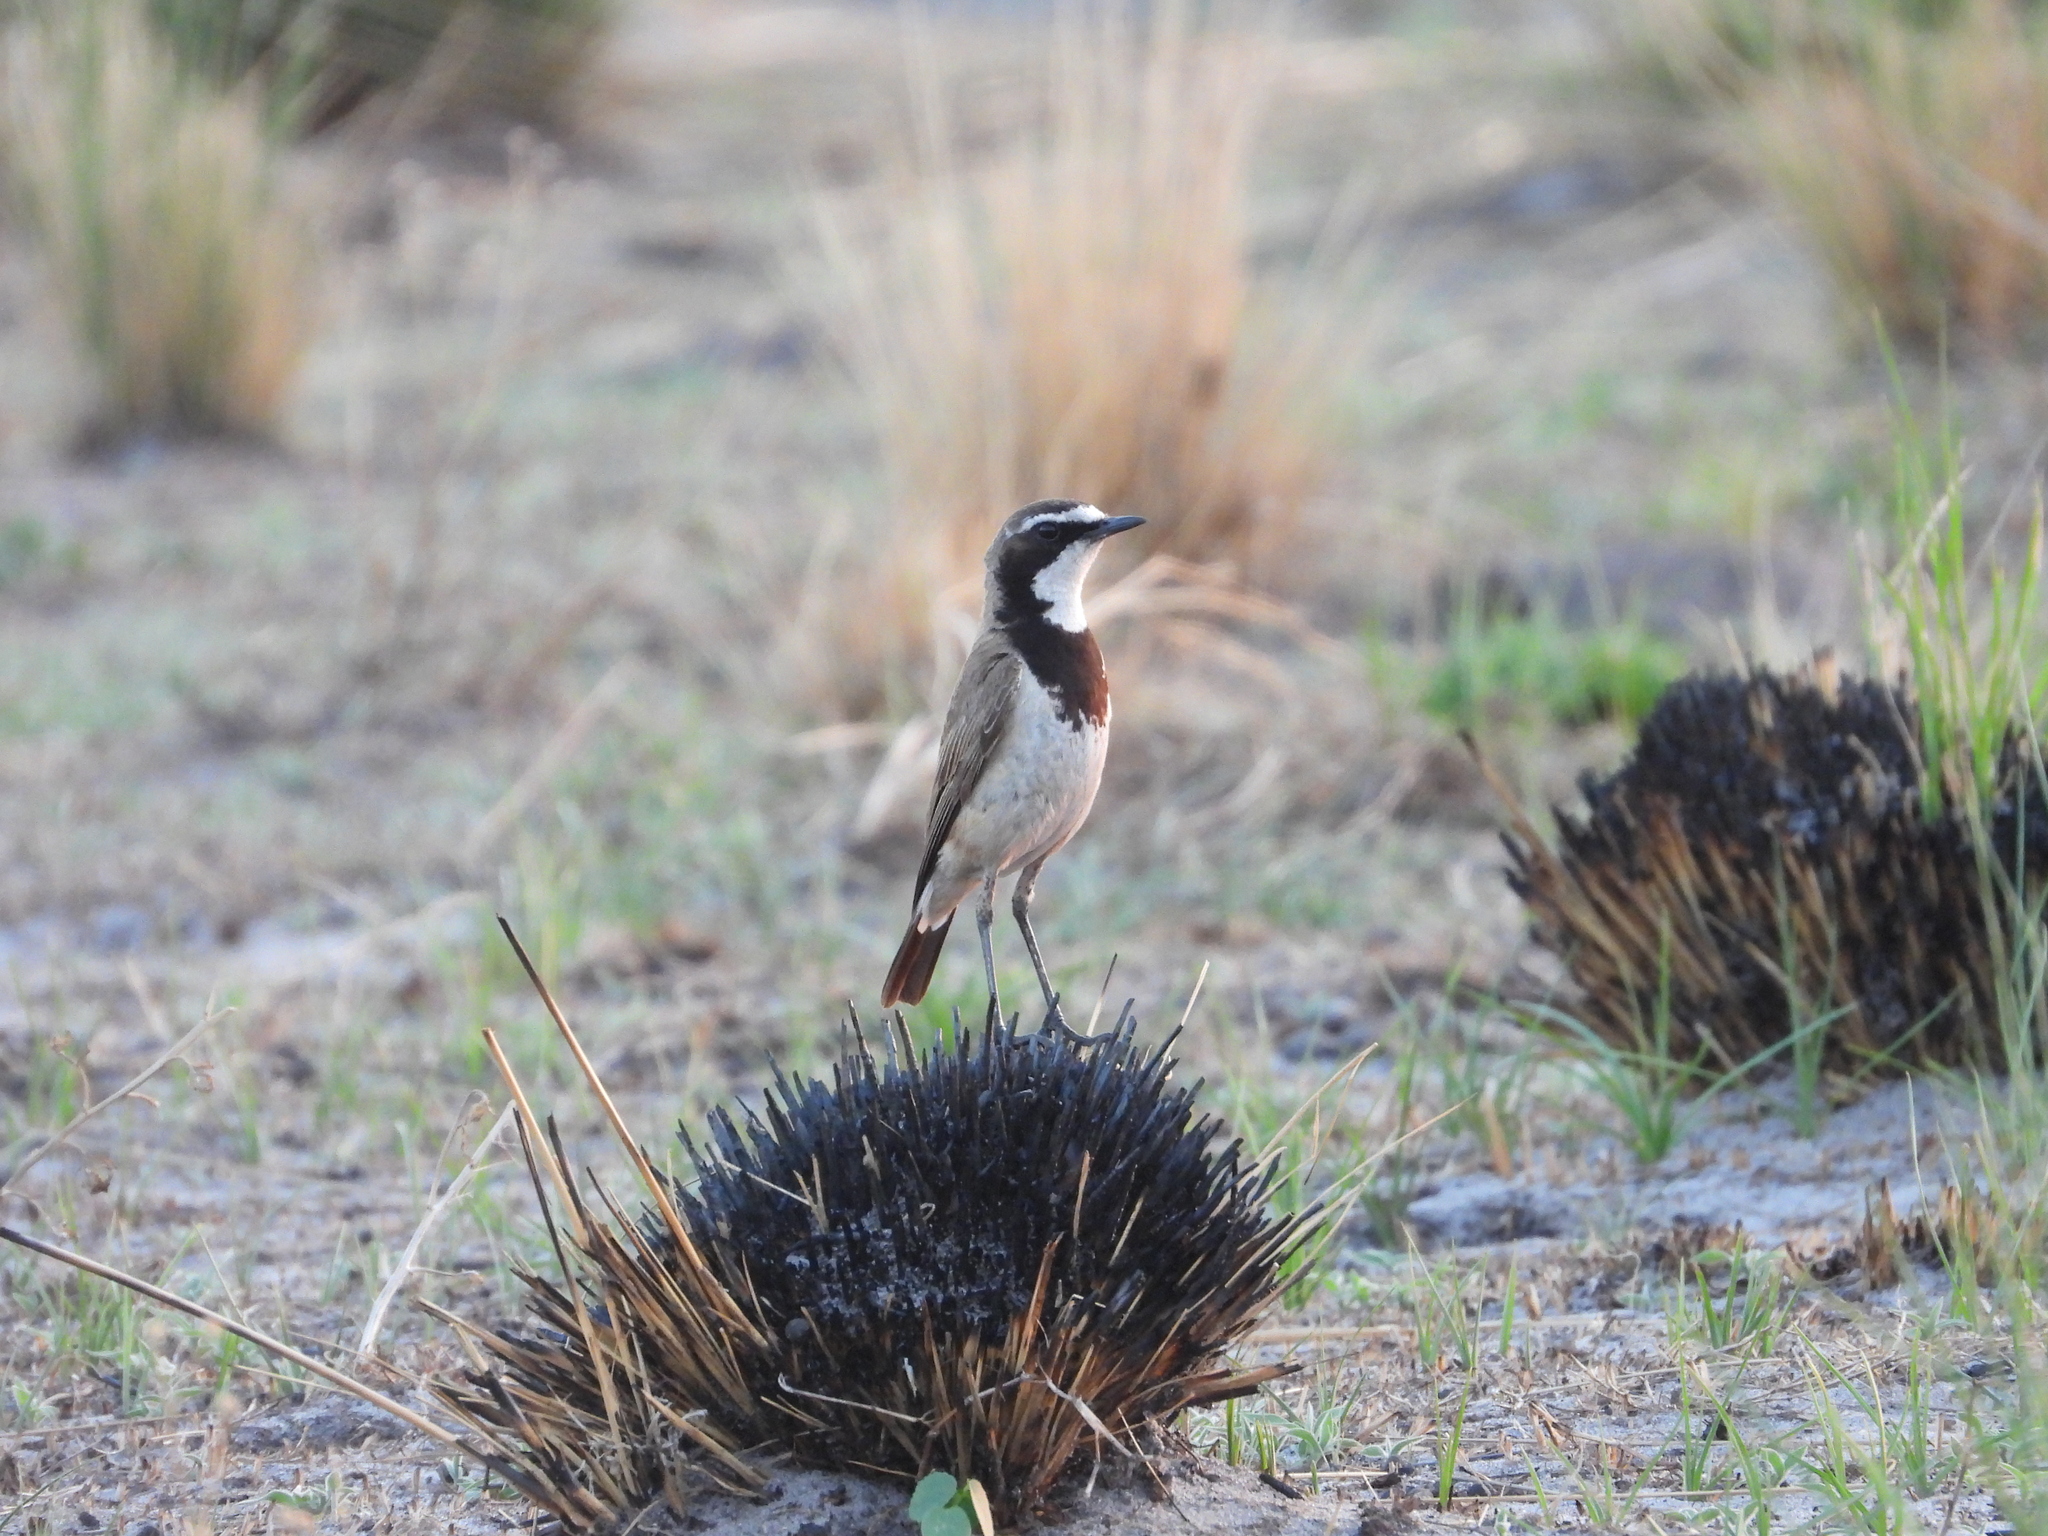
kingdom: Animalia
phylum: Chordata
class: Aves
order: Passeriformes
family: Muscicapidae
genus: Oenanthe
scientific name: Oenanthe pileata
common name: Capped wheatear
